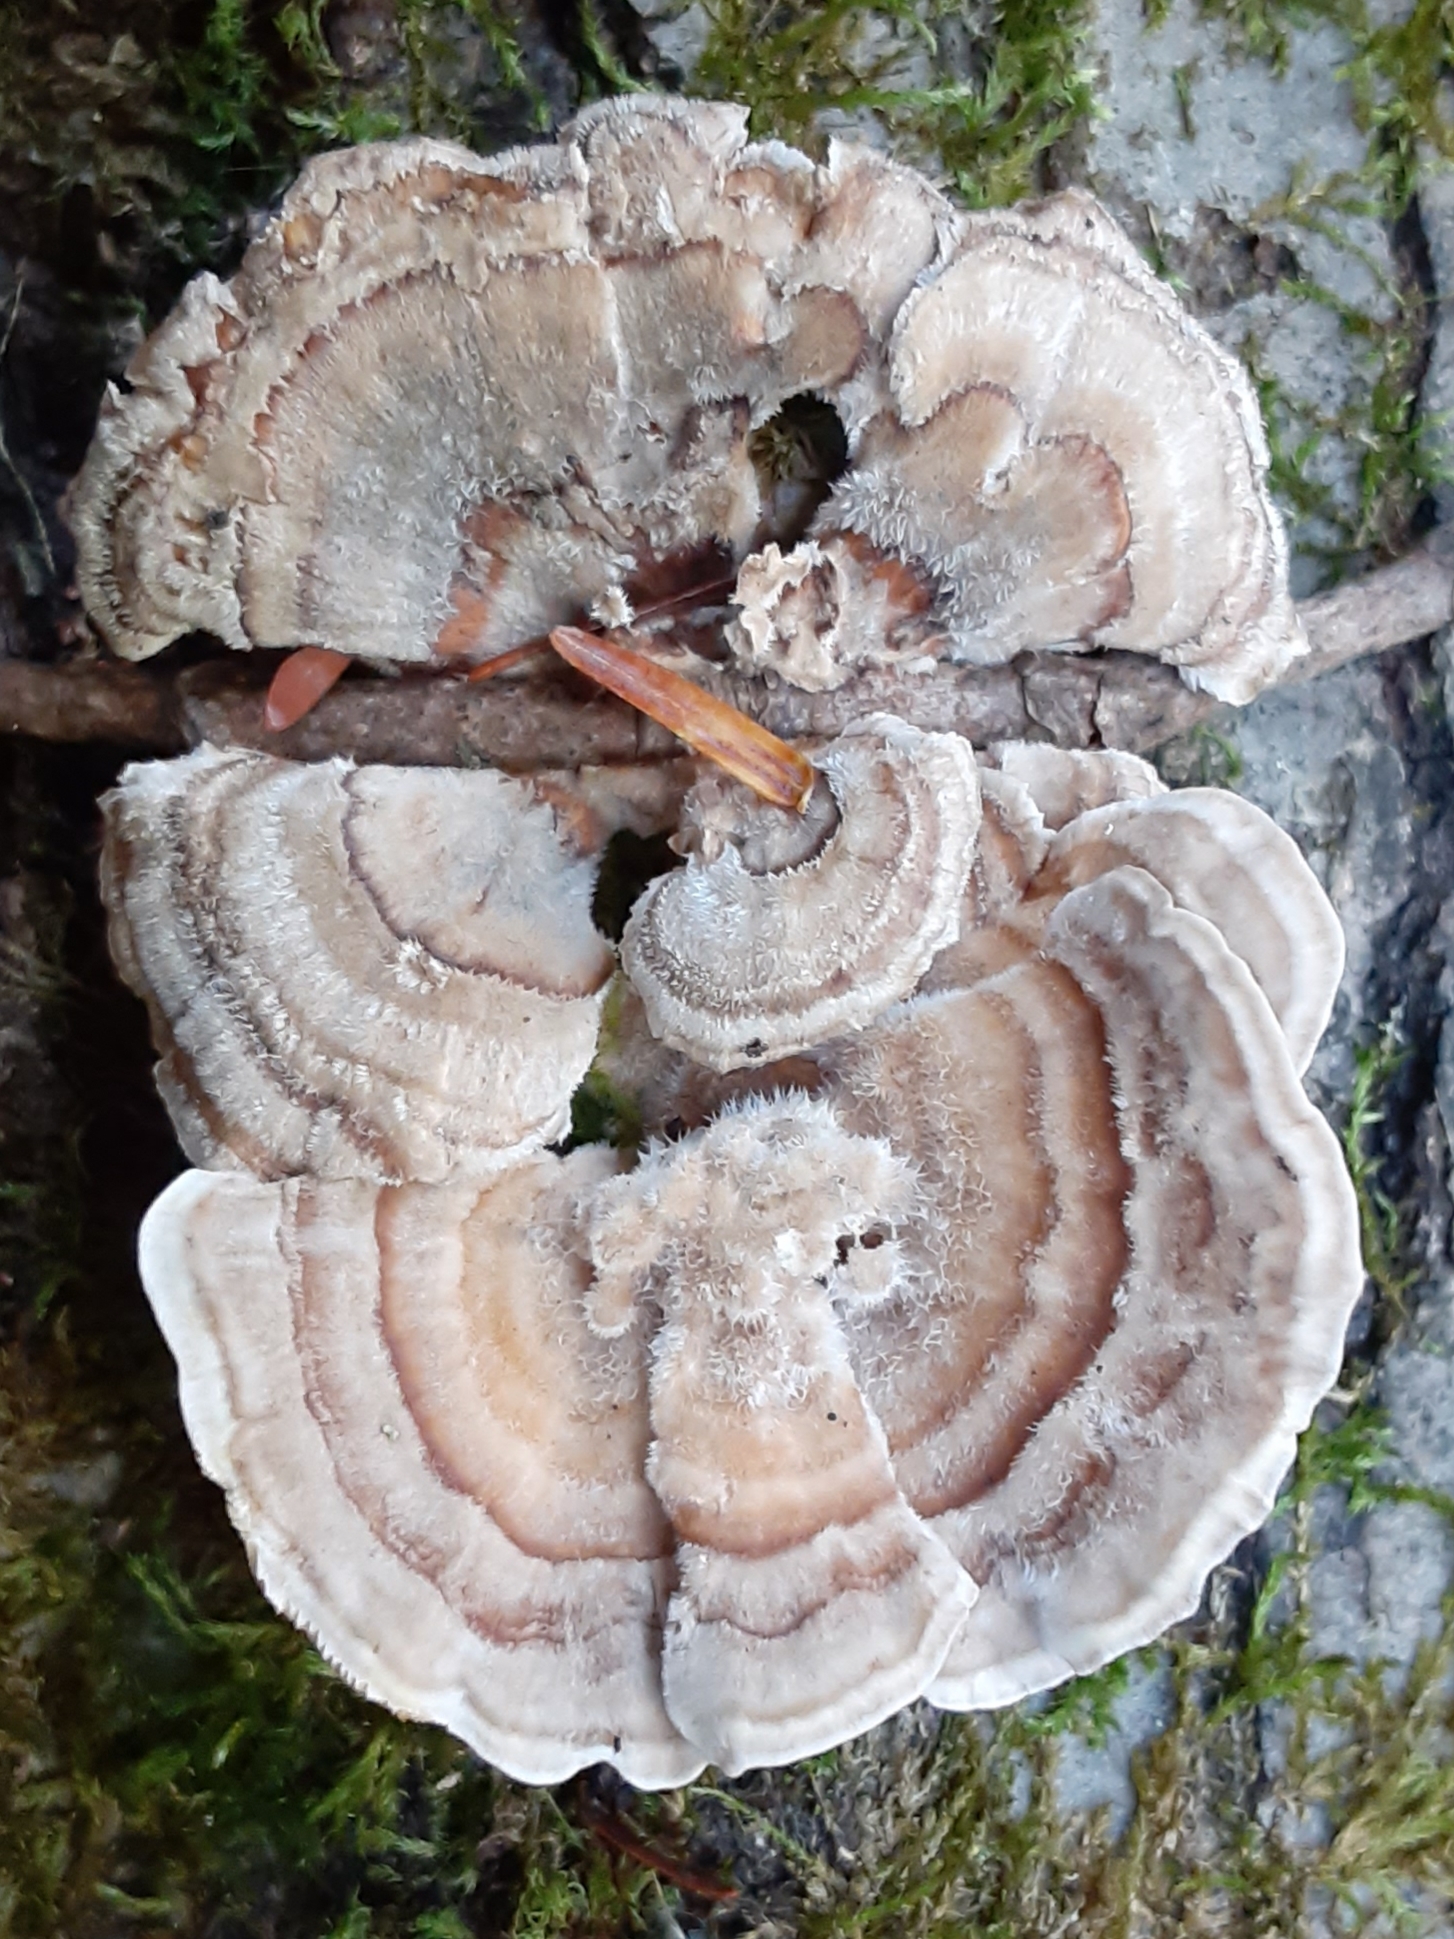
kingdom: Fungi
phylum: Basidiomycota
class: Agaricomycetes
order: Polyporales
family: Polyporaceae
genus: Trametes
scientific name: Trametes versicolor
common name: Turkeytail
